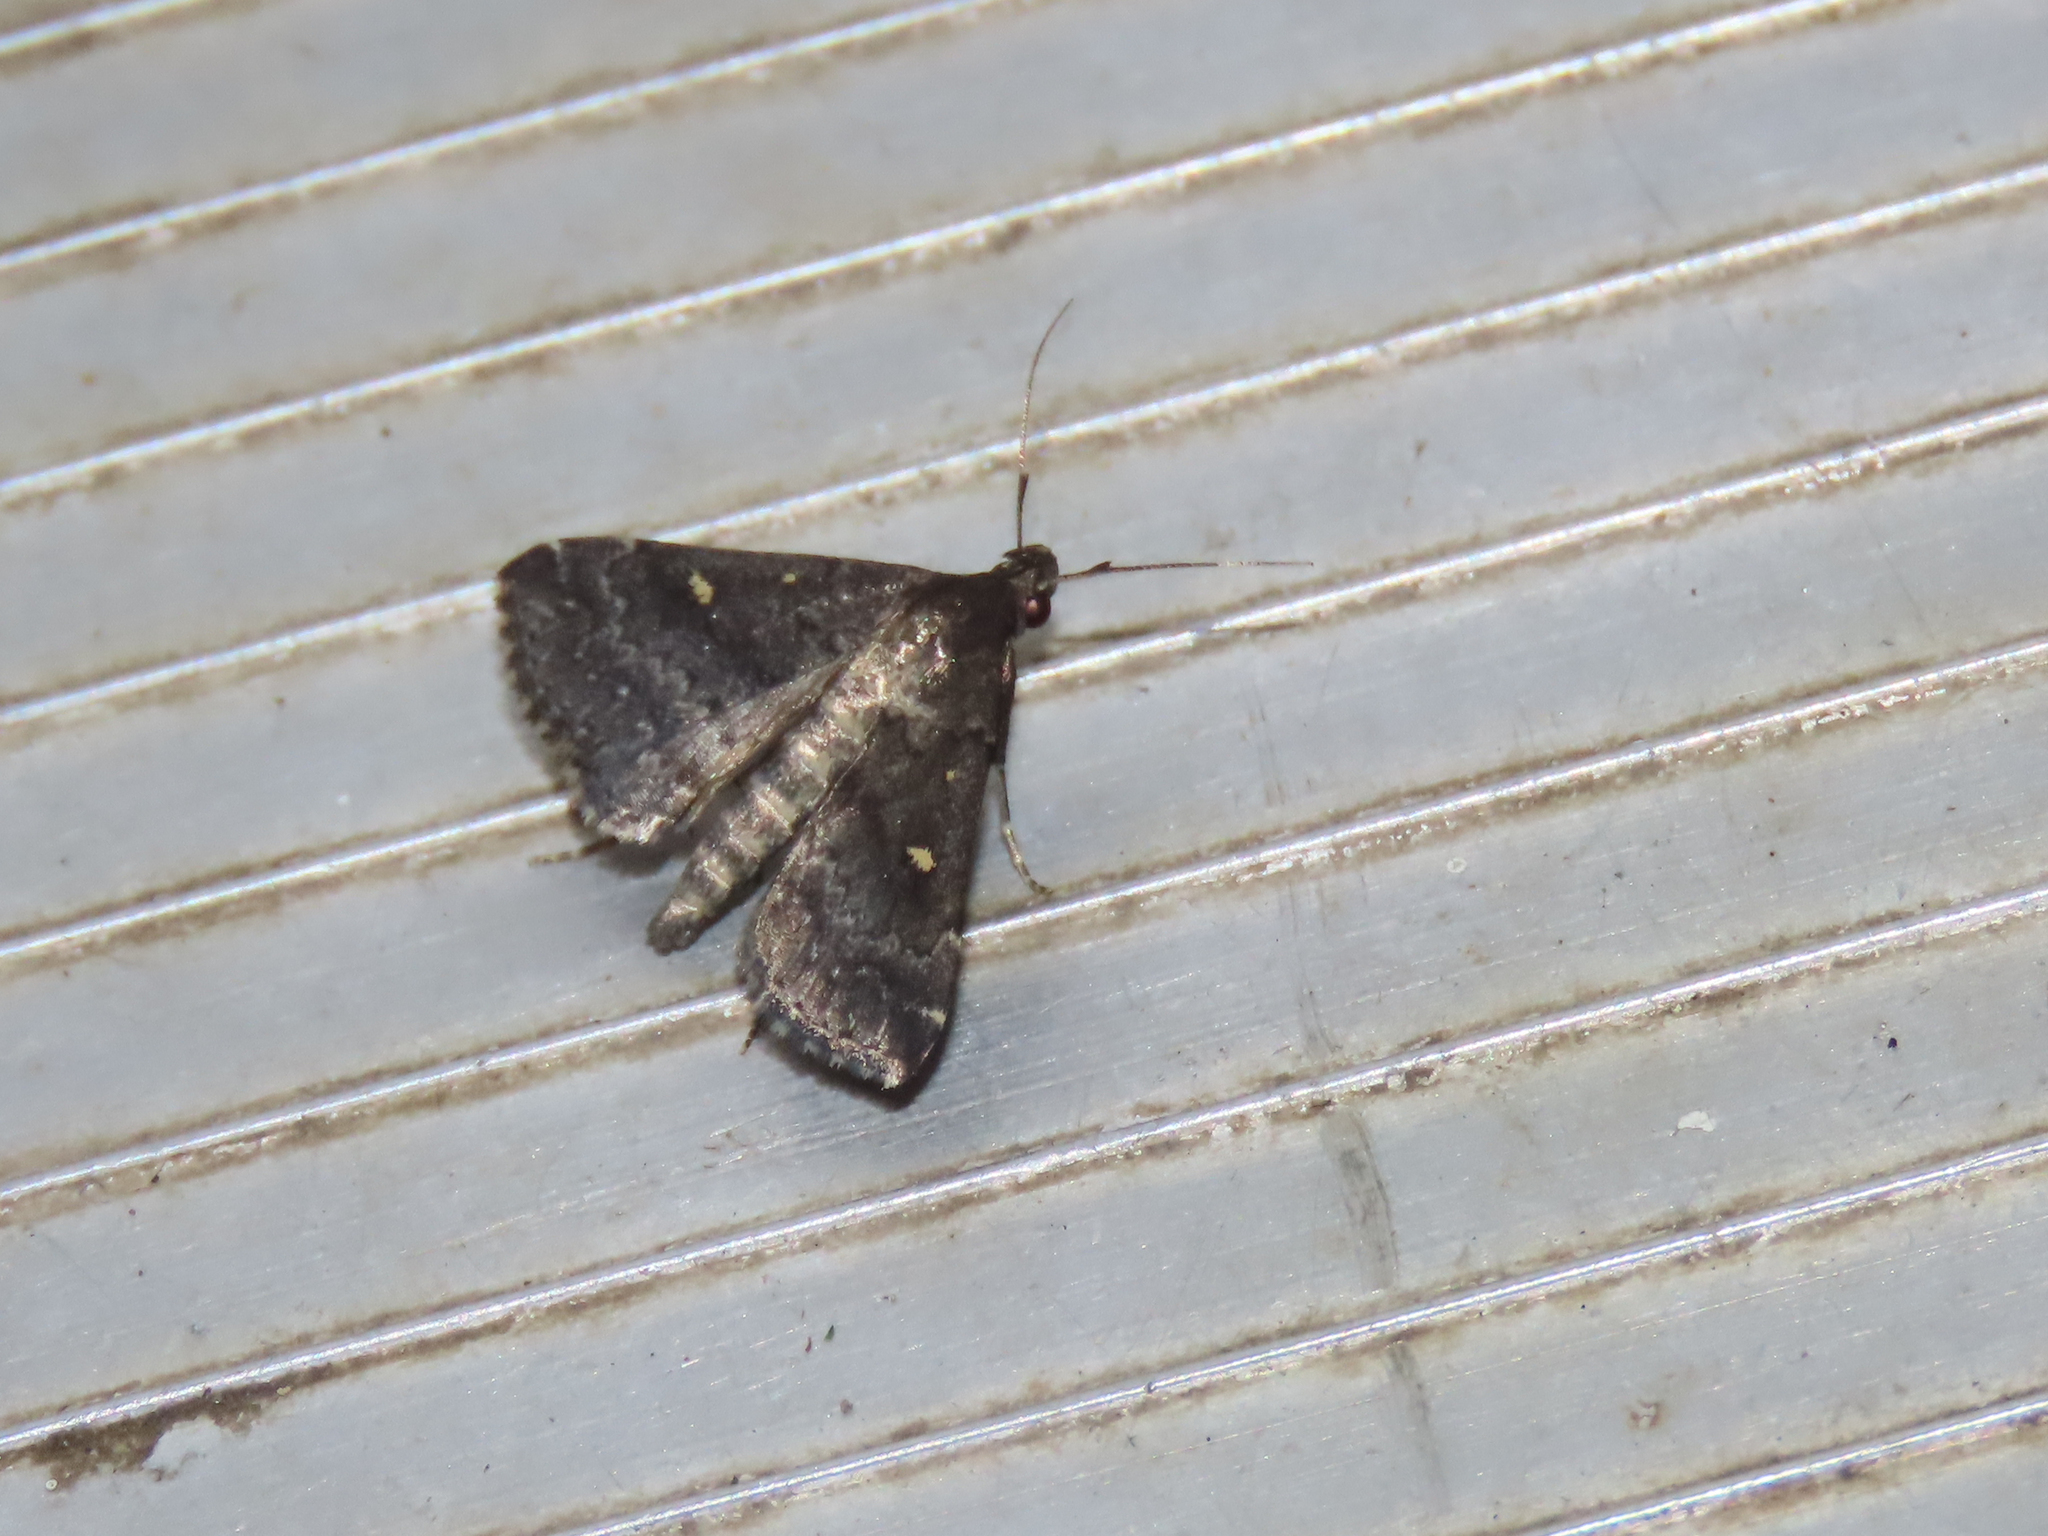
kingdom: Animalia
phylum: Arthropoda
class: Insecta
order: Lepidoptera
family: Erebidae
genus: Tetanolita
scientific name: Tetanolita mynesalis
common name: Smoky tetanolita moth
